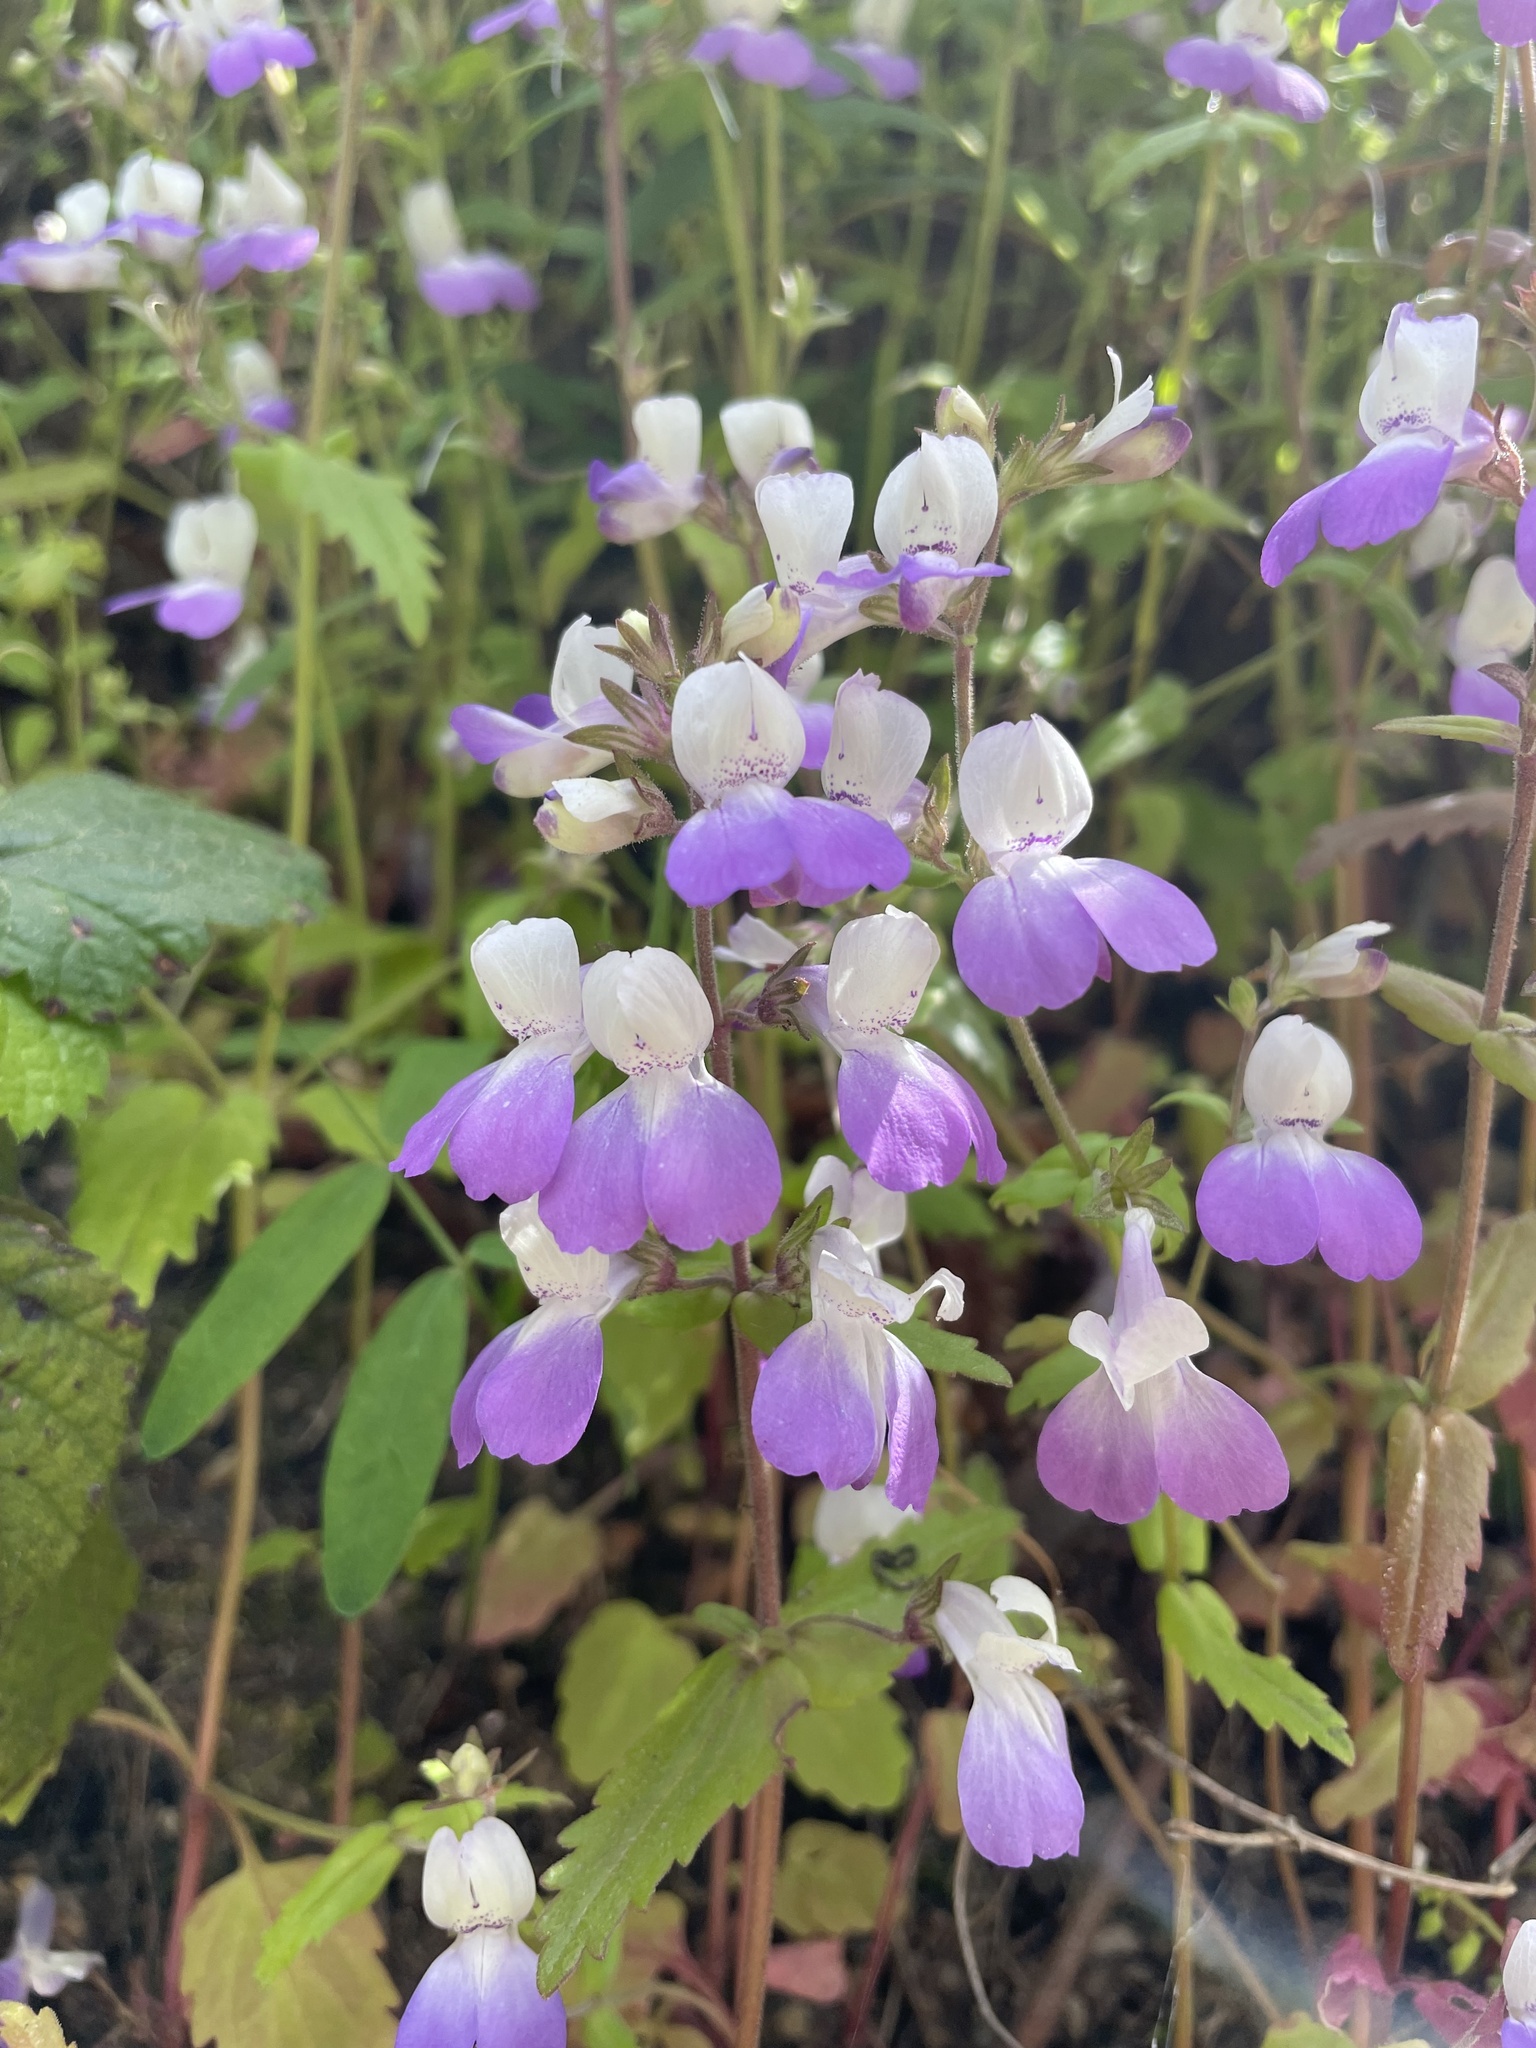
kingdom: Plantae
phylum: Tracheophyta
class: Magnoliopsida
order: Lamiales
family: Plantaginaceae
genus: Collinsia
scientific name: Collinsia multicolor
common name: San francisco collinsia
